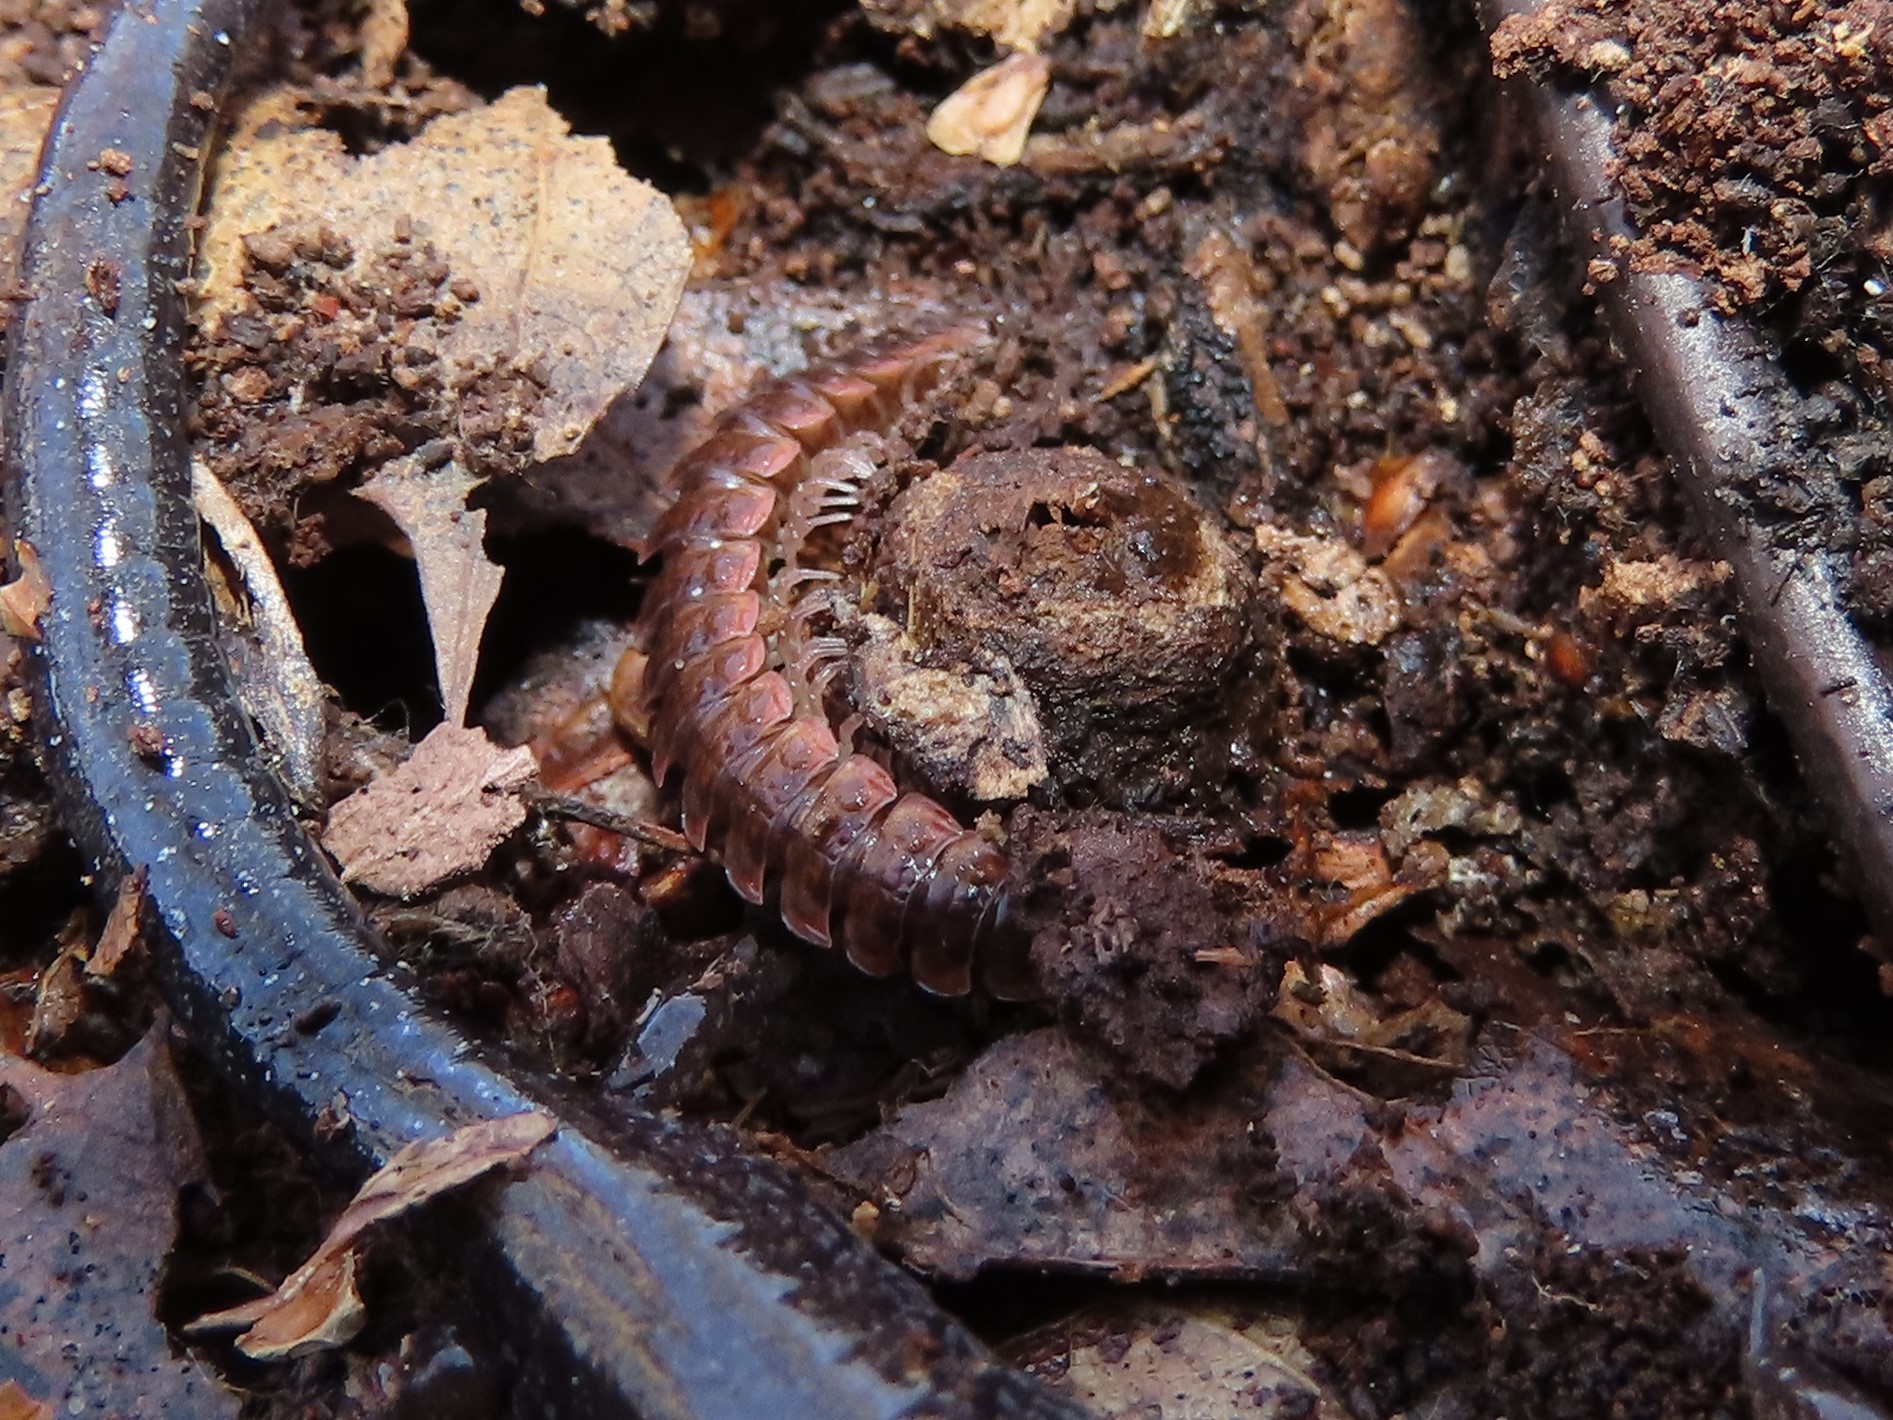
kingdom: Animalia
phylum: Arthropoda
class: Diplopoda
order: Polydesmida
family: Polydesmidae
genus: Pseudopolydesmus
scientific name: Pseudopolydesmus serratus
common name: Common pink flat-back millipede
